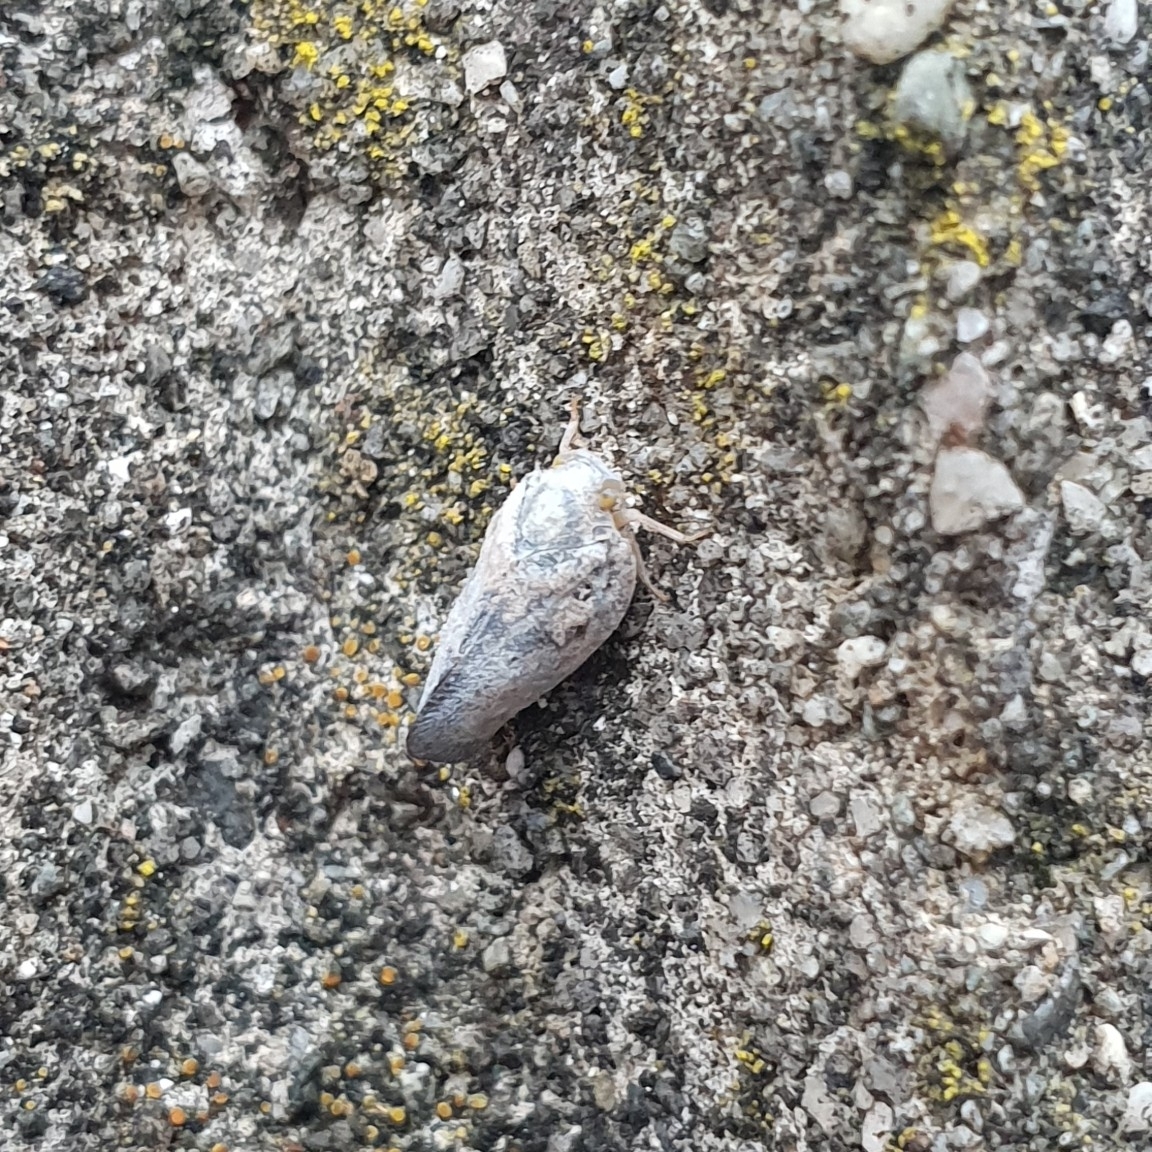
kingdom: Animalia
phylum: Arthropoda
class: Insecta
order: Hemiptera
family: Flatidae
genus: Metcalfa
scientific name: Metcalfa pruinosa
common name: Citrus flatid planthopper
